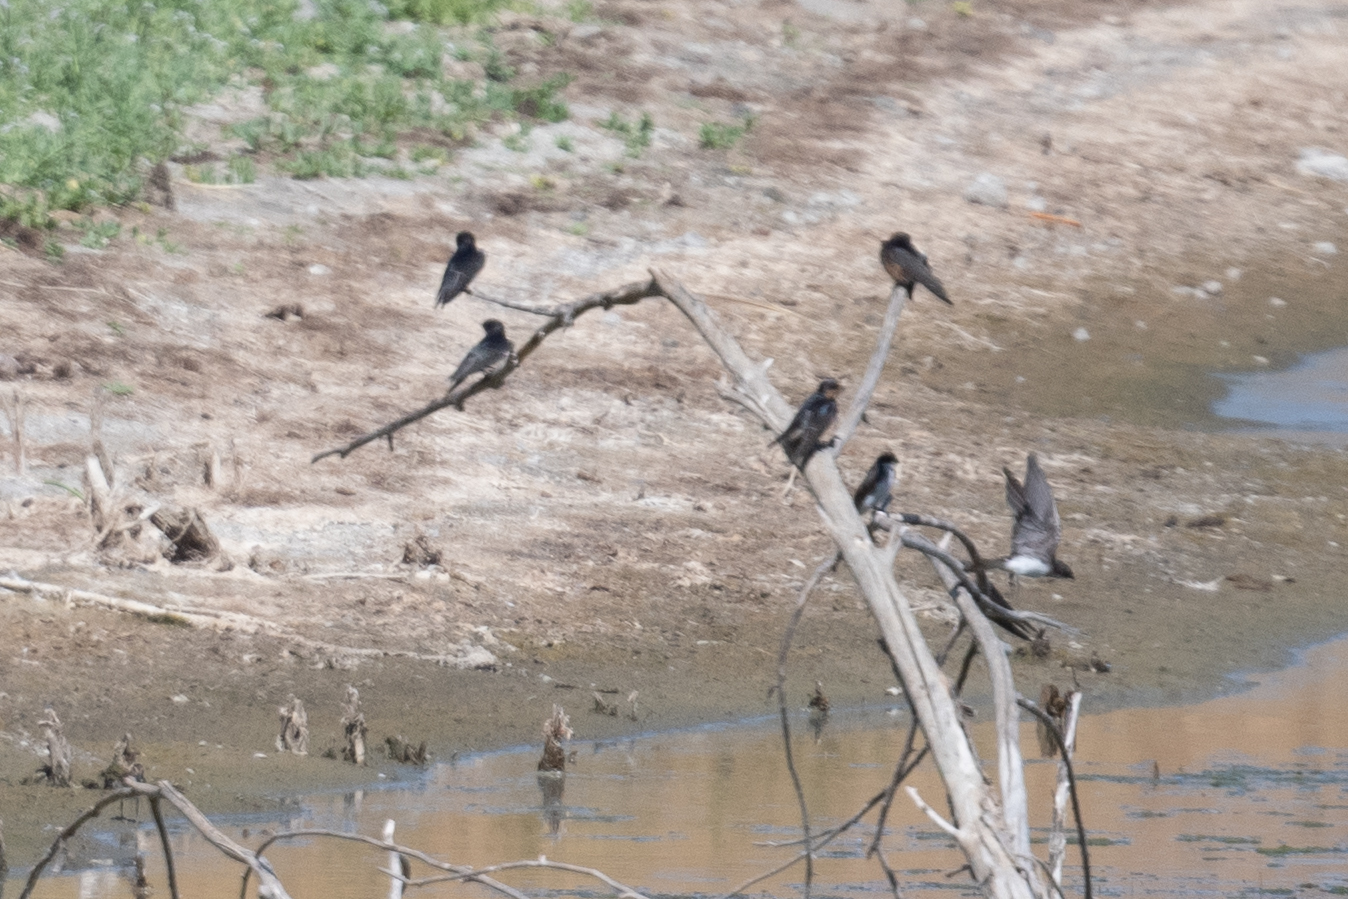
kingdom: Animalia
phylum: Chordata
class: Aves
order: Passeriformes
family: Hirundinidae
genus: Hirundo
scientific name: Hirundo rustica
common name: Barn swallow
